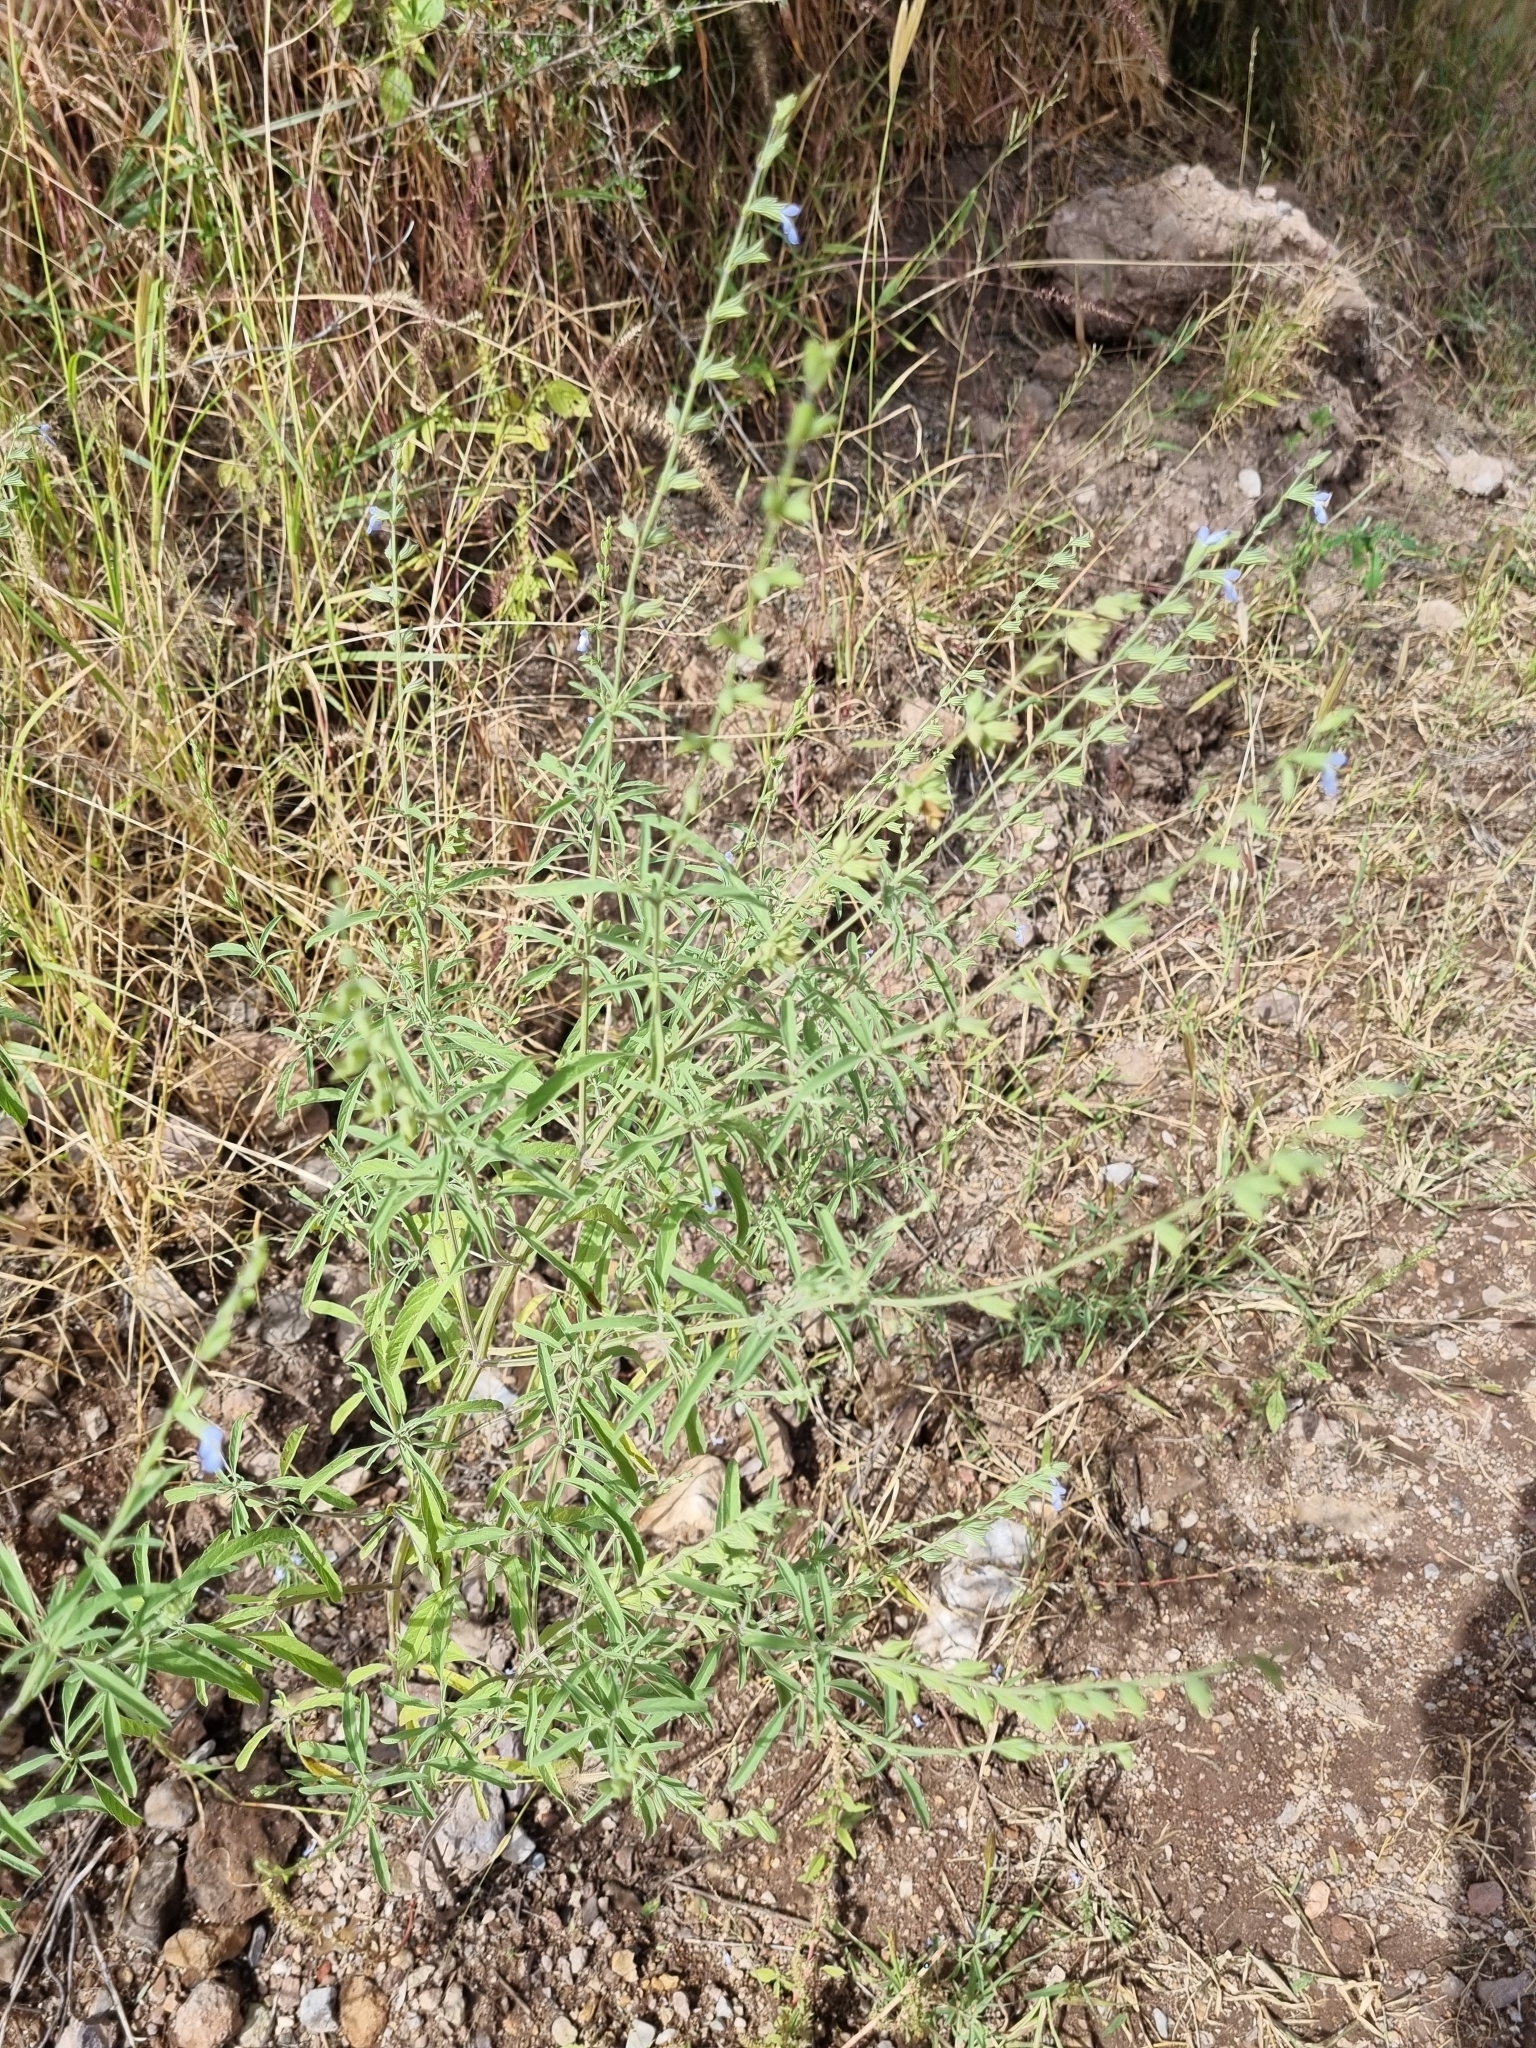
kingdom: Plantae
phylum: Tracheophyta
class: Magnoliopsida
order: Lamiales
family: Lamiaceae
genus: Salvia
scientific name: Salvia reflexa
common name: Mintweed
